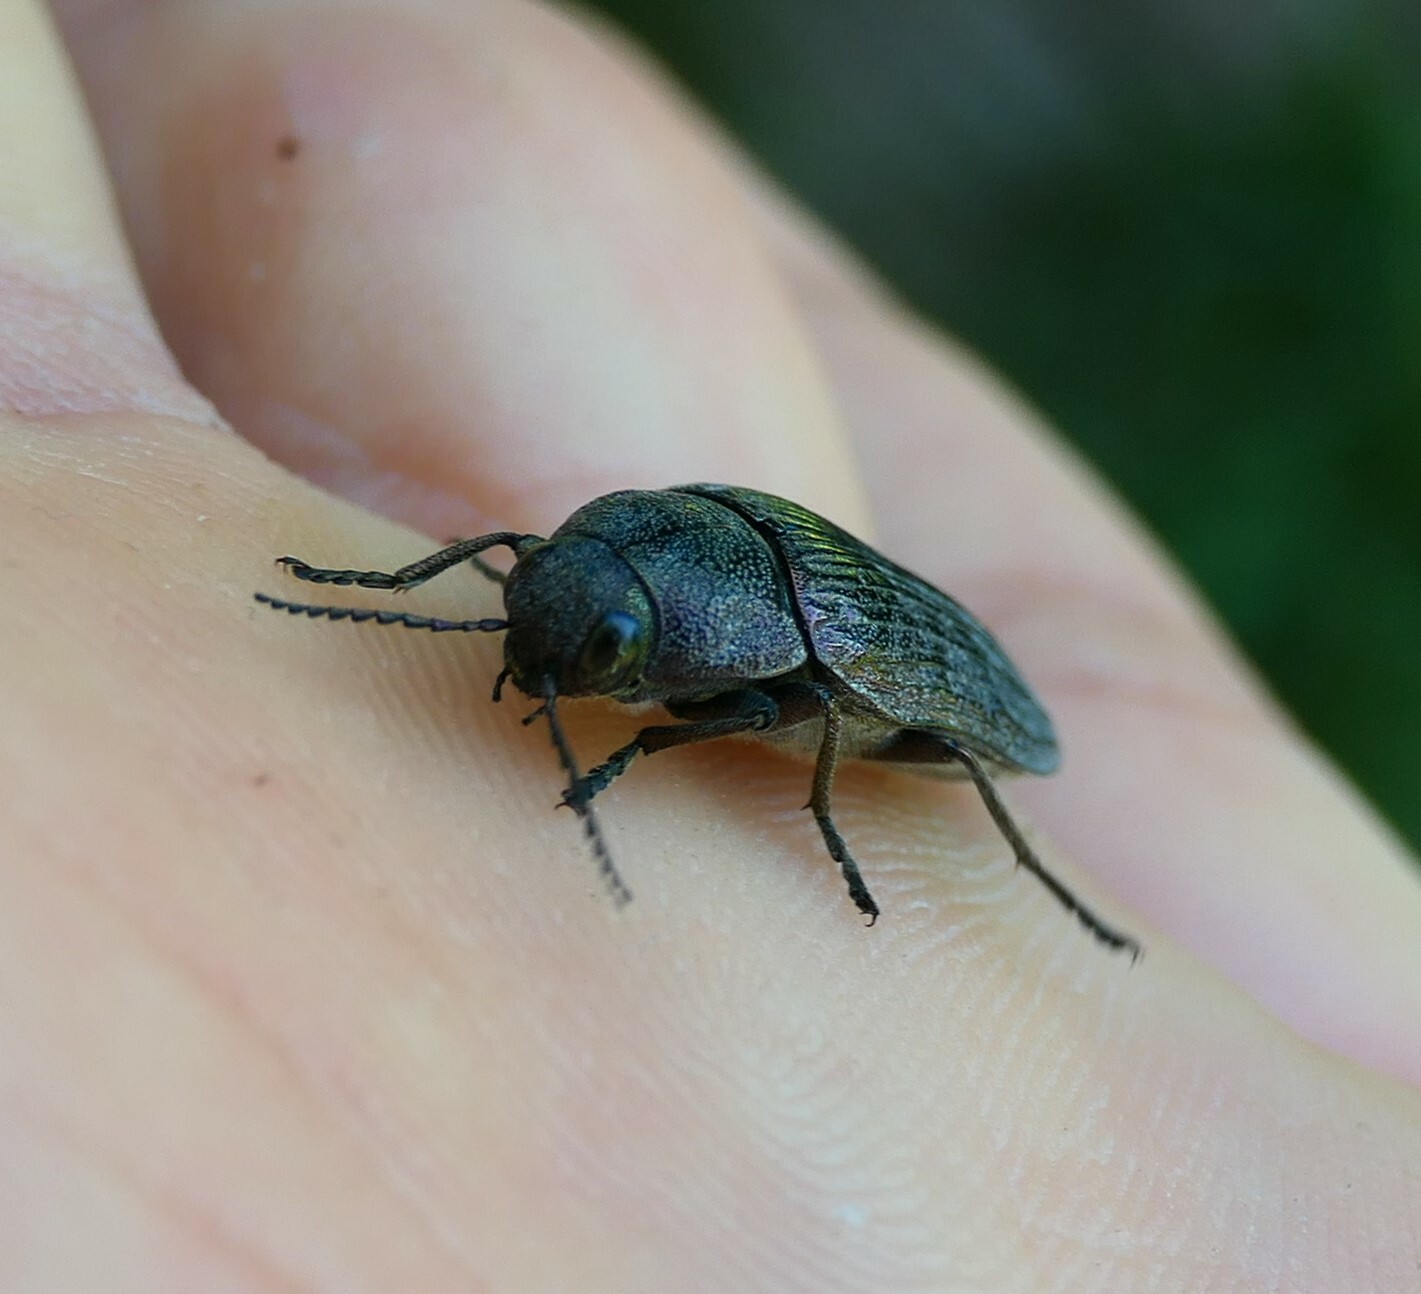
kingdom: Animalia
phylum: Arthropoda
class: Insecta
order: Coleoptera
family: Buprestidae
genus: Buprestis
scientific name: Buprestis rustica
